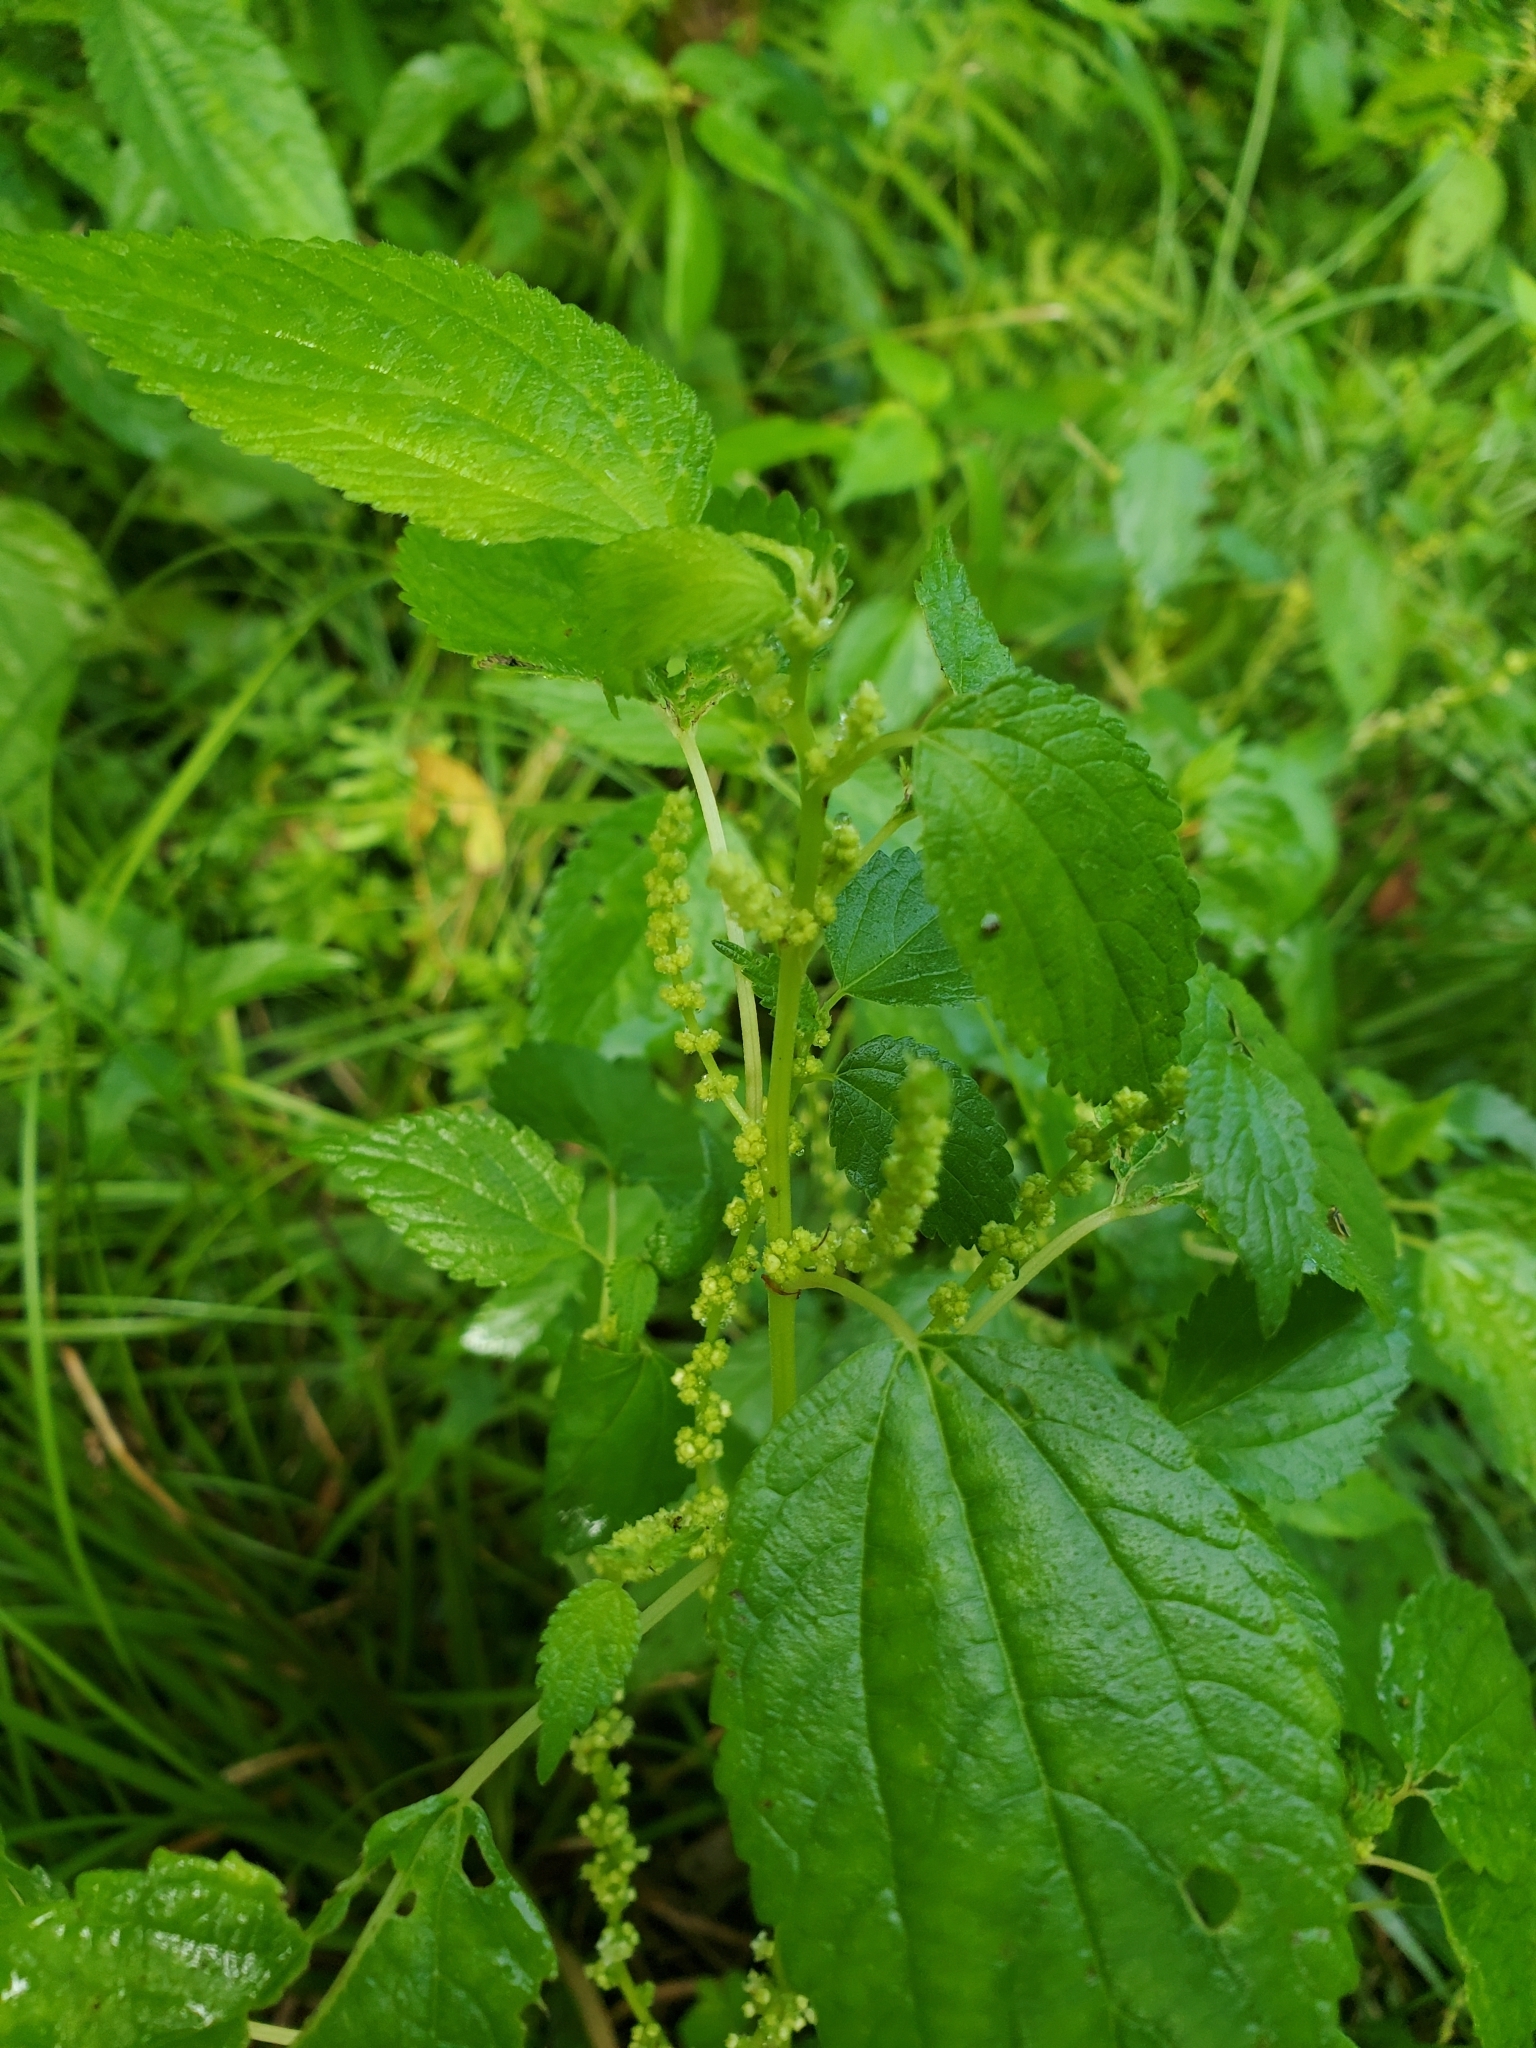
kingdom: Plantae
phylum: Tracheophyta
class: Magnoliopsida
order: Rosales
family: Urticaceae
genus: Boehmeria
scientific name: Boehmeria cylindrica
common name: Bog-hemp
